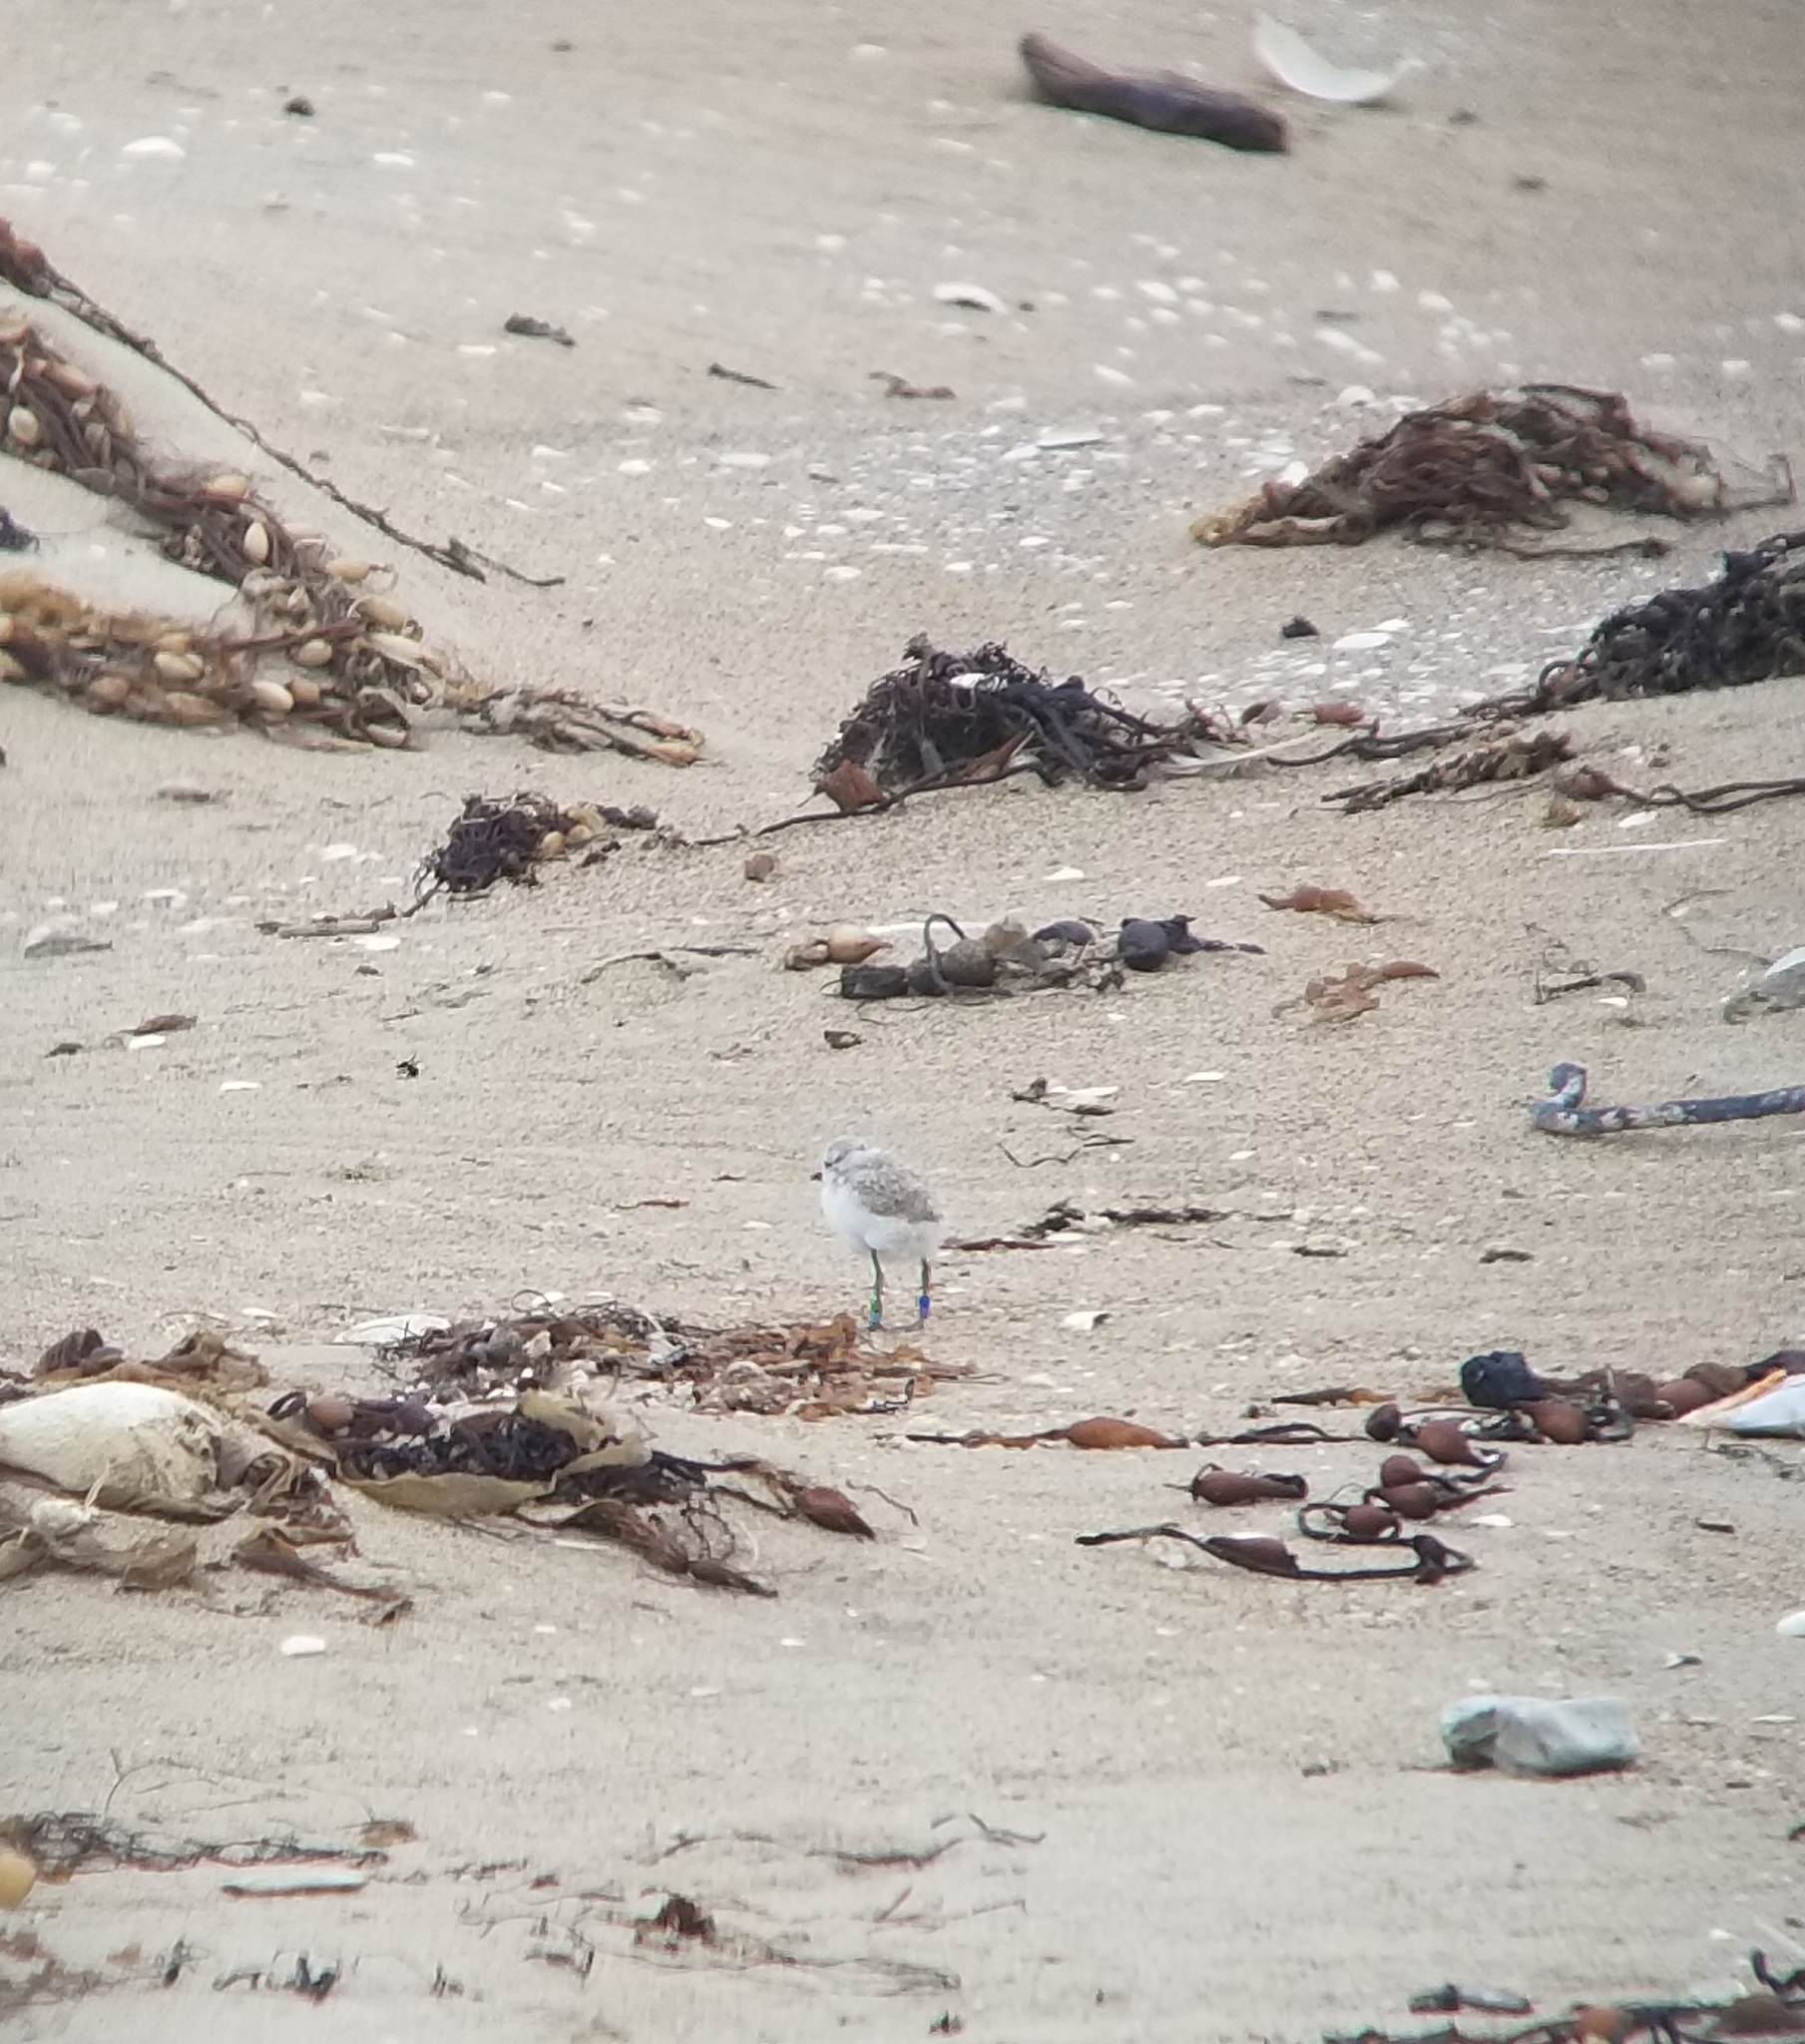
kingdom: Animalia
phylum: Chordata
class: Aves
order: Charadriiformes
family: Charadriidae
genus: Anarhynchus
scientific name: Anarhynchus
